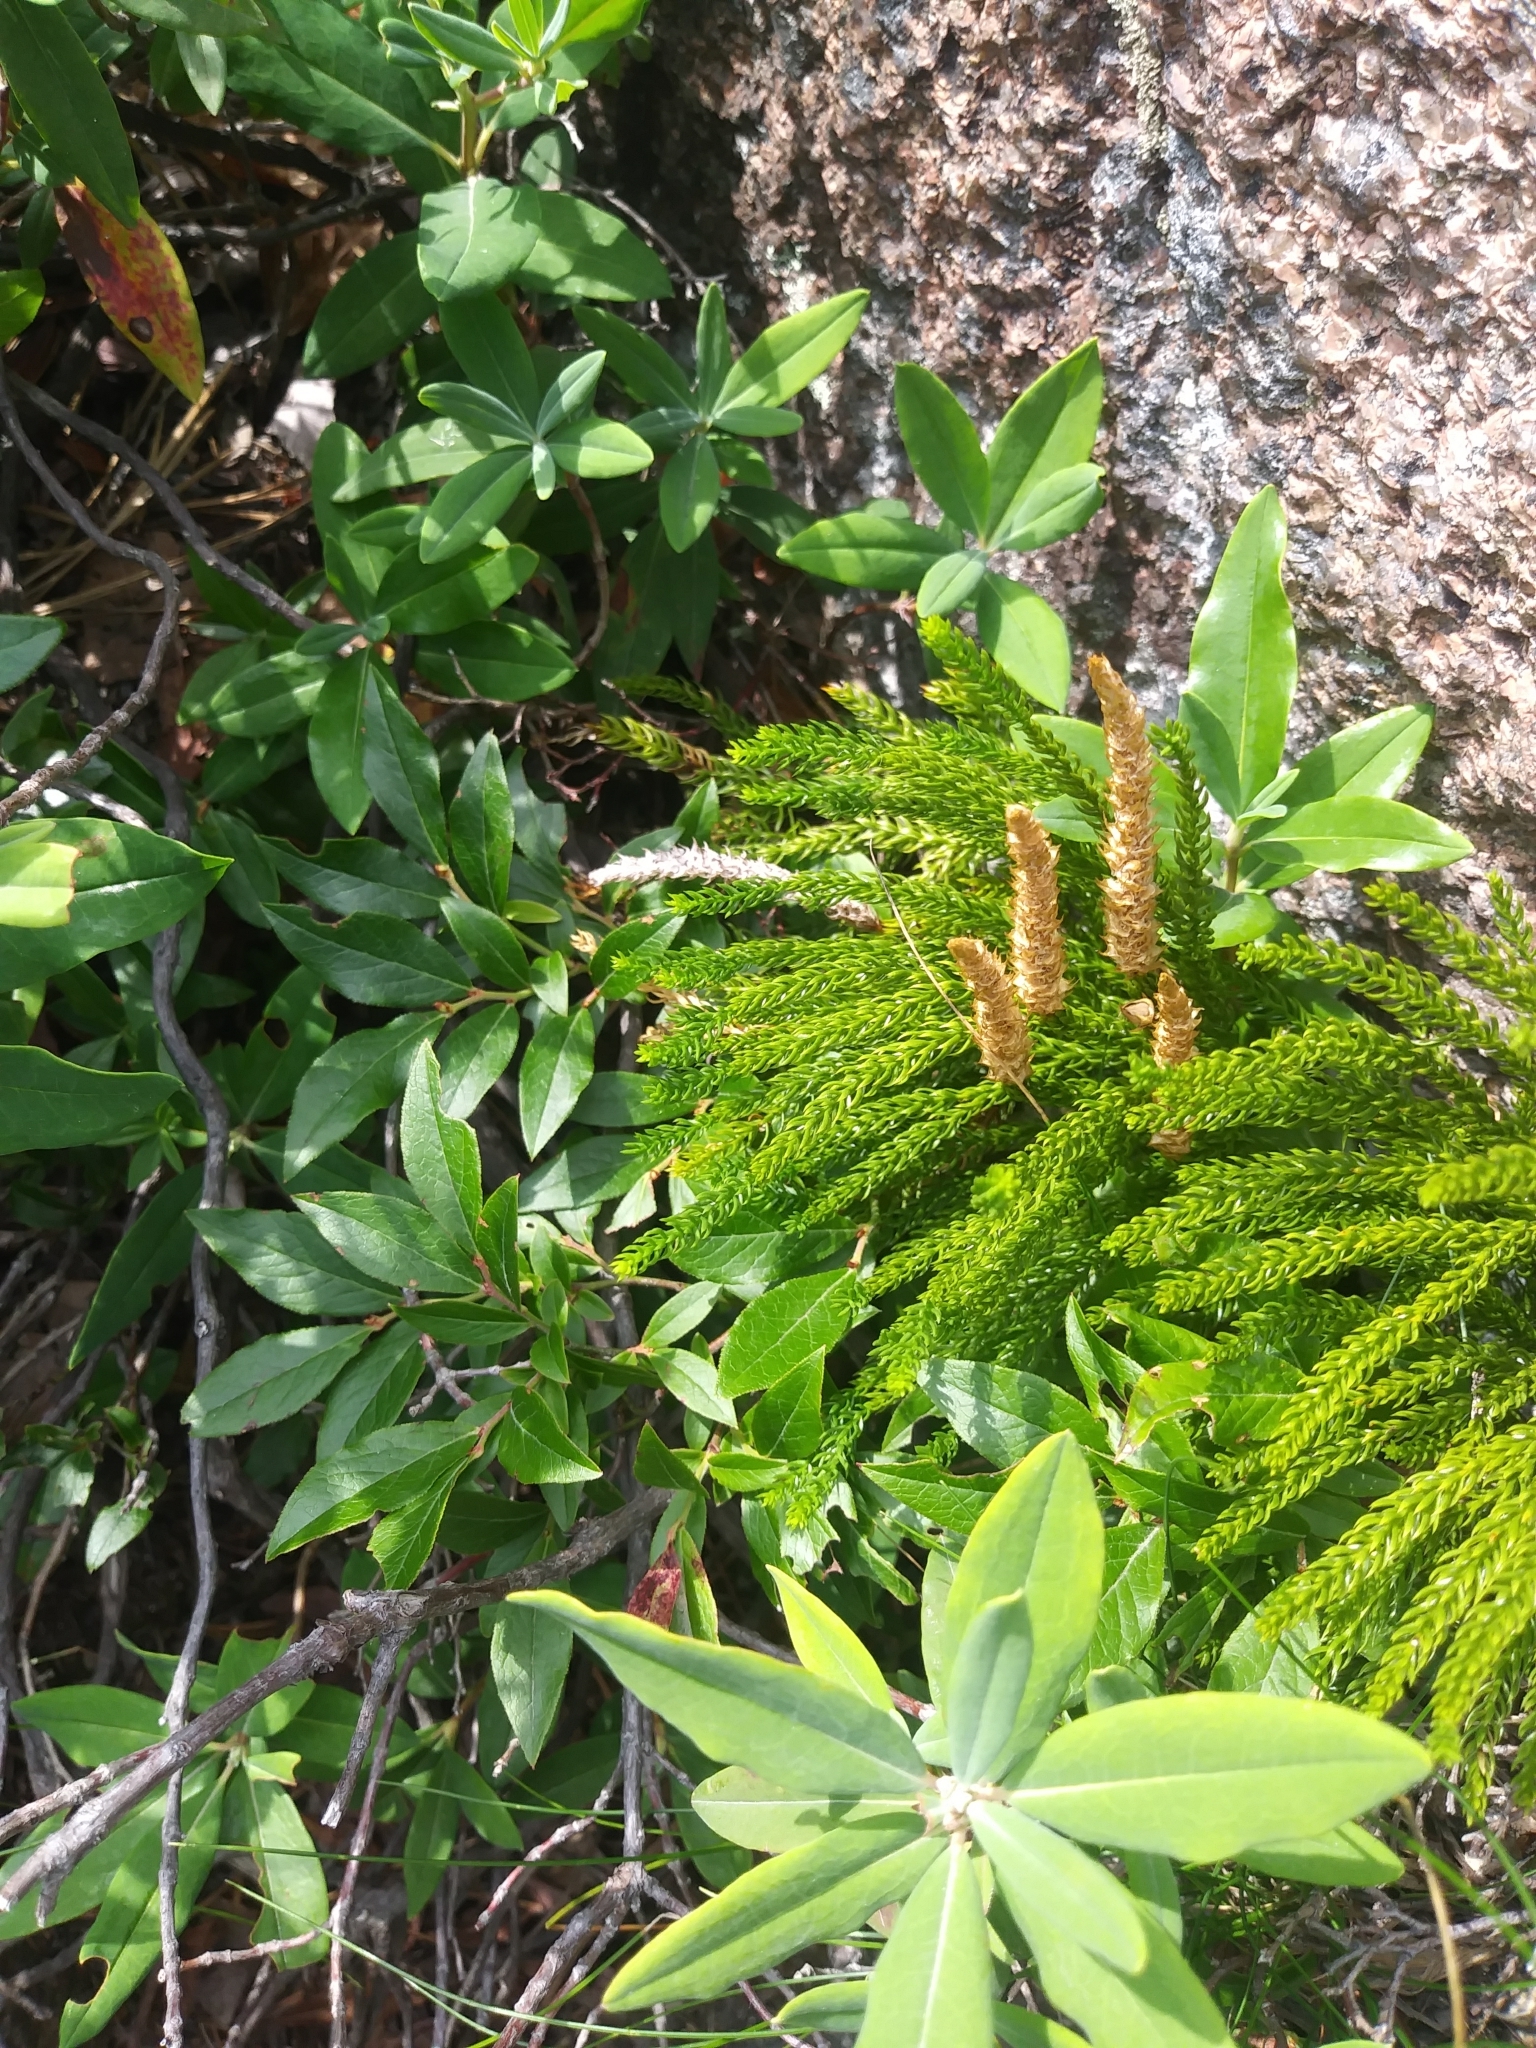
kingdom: Plantae
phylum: Tracheophyta
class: Lycopodiopsida
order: Lycopodiales
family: Lycopodiaceae
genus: Dendrolycopodium
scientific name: Dendrolycopodium hickeyi
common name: Hickey's clubmoss
